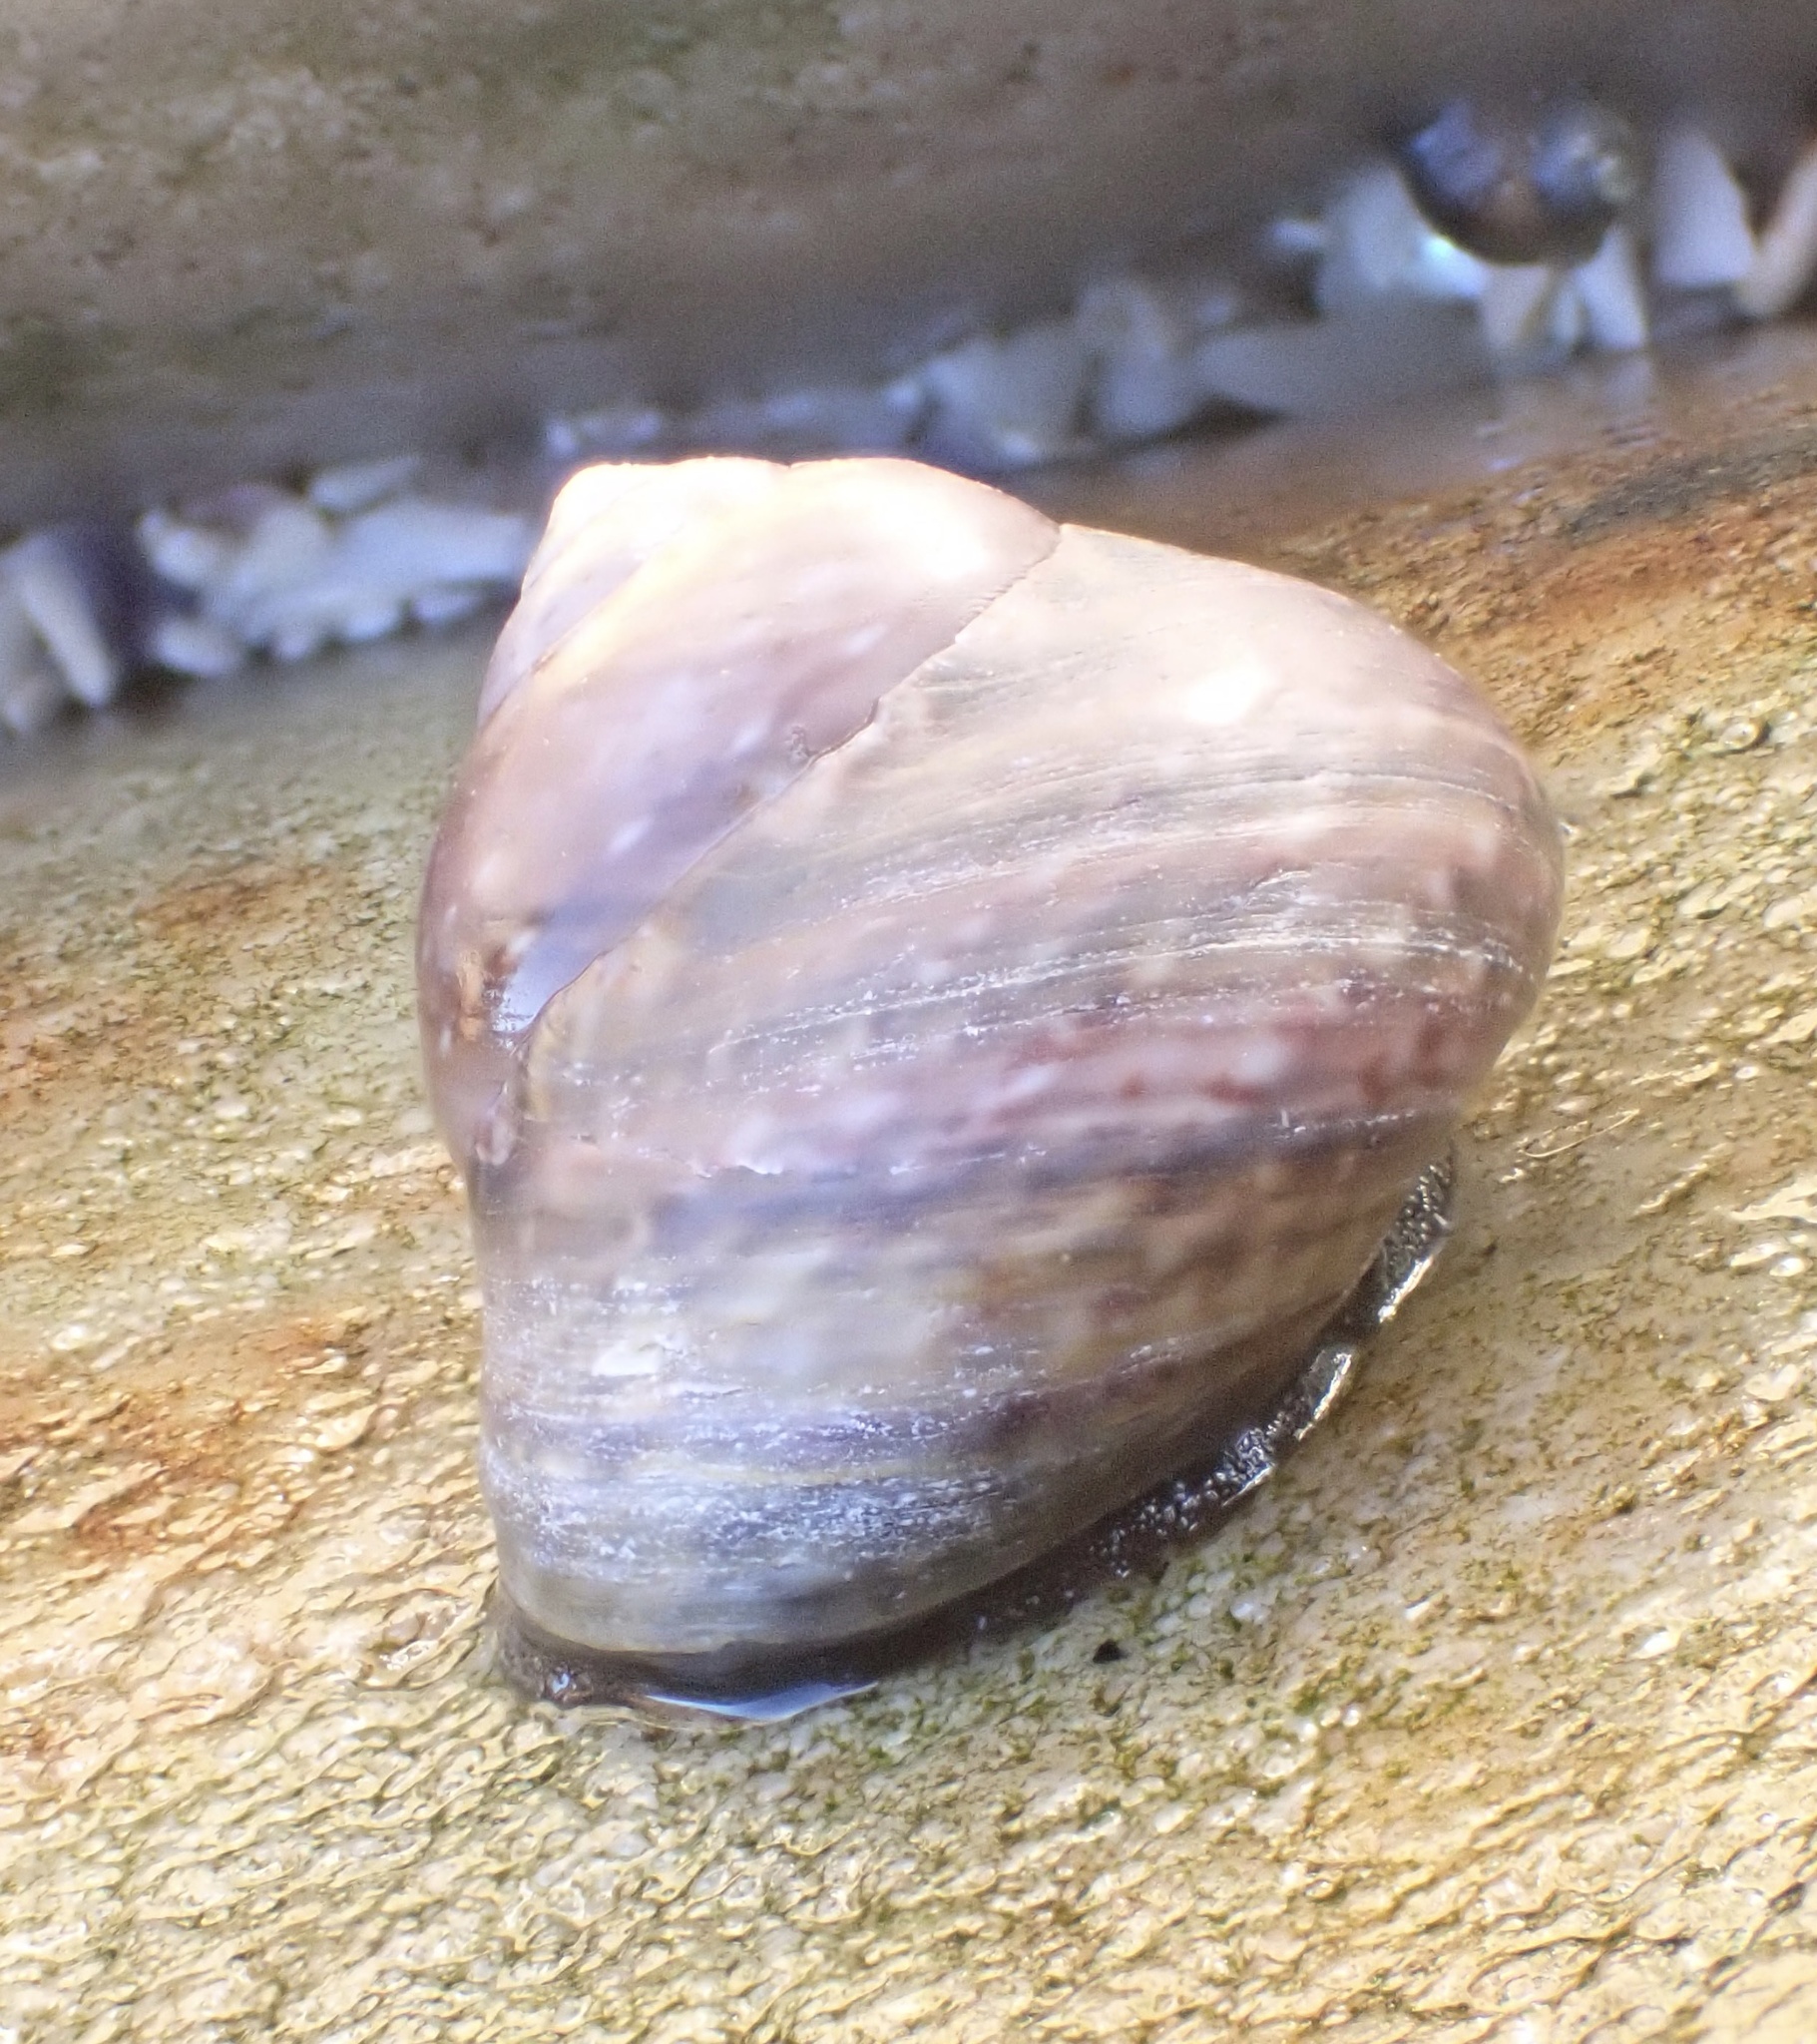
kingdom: Animalia
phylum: Mollusca
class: Gastropoda
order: Trochida
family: Trochidae
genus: Oxystele
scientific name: Oxystele impervia
